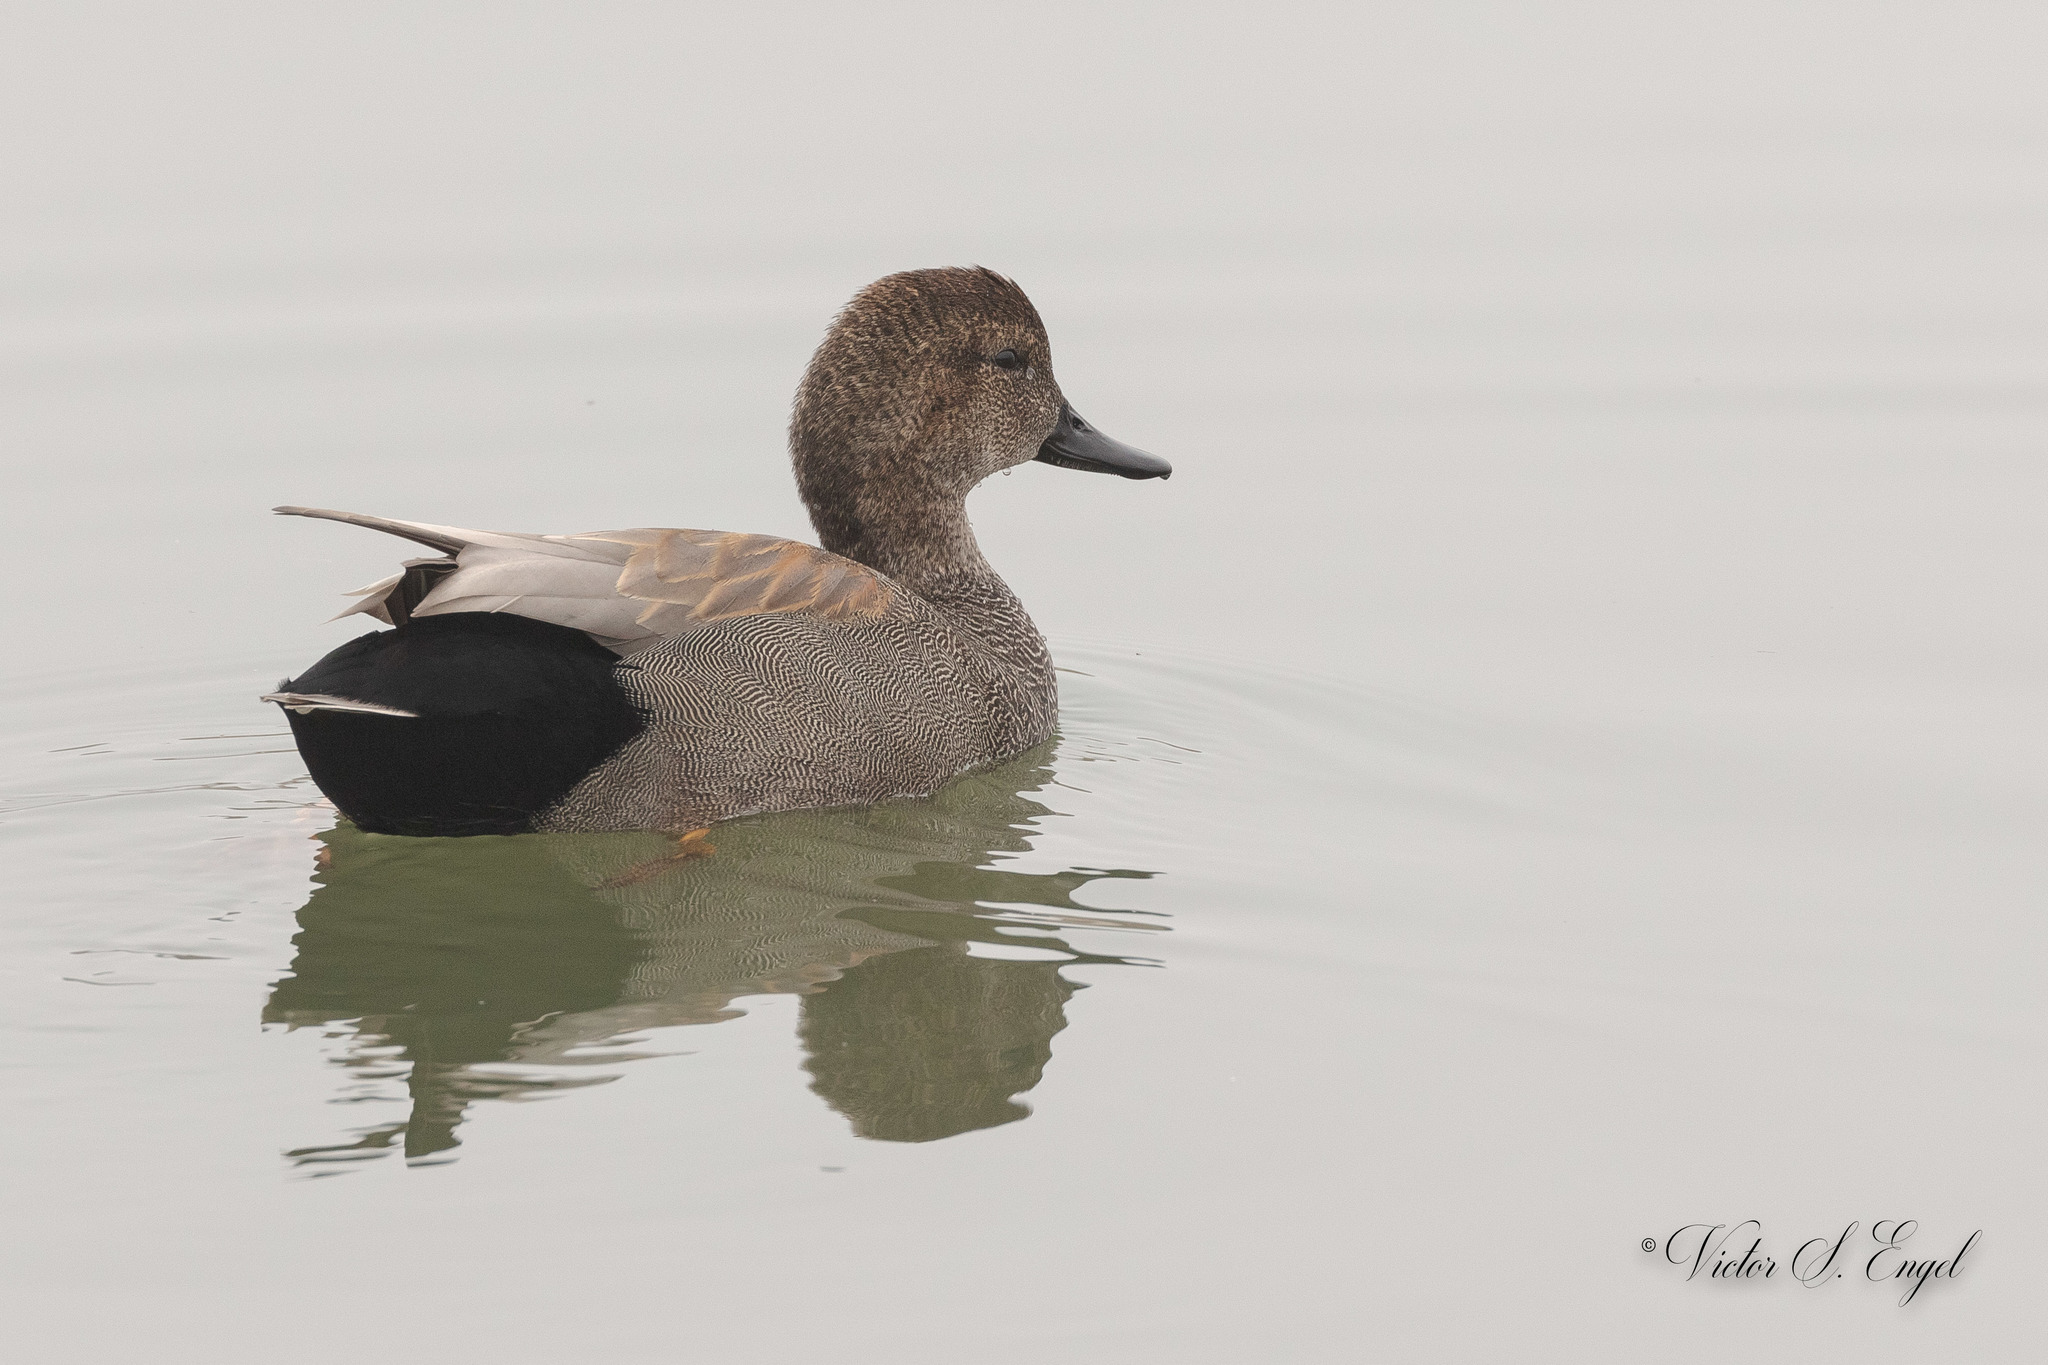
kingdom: Animalia
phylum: Chordata
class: Aves
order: Anseriformes
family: Anatidae
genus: Mareca
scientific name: Mareca strepera
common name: Gadwall
